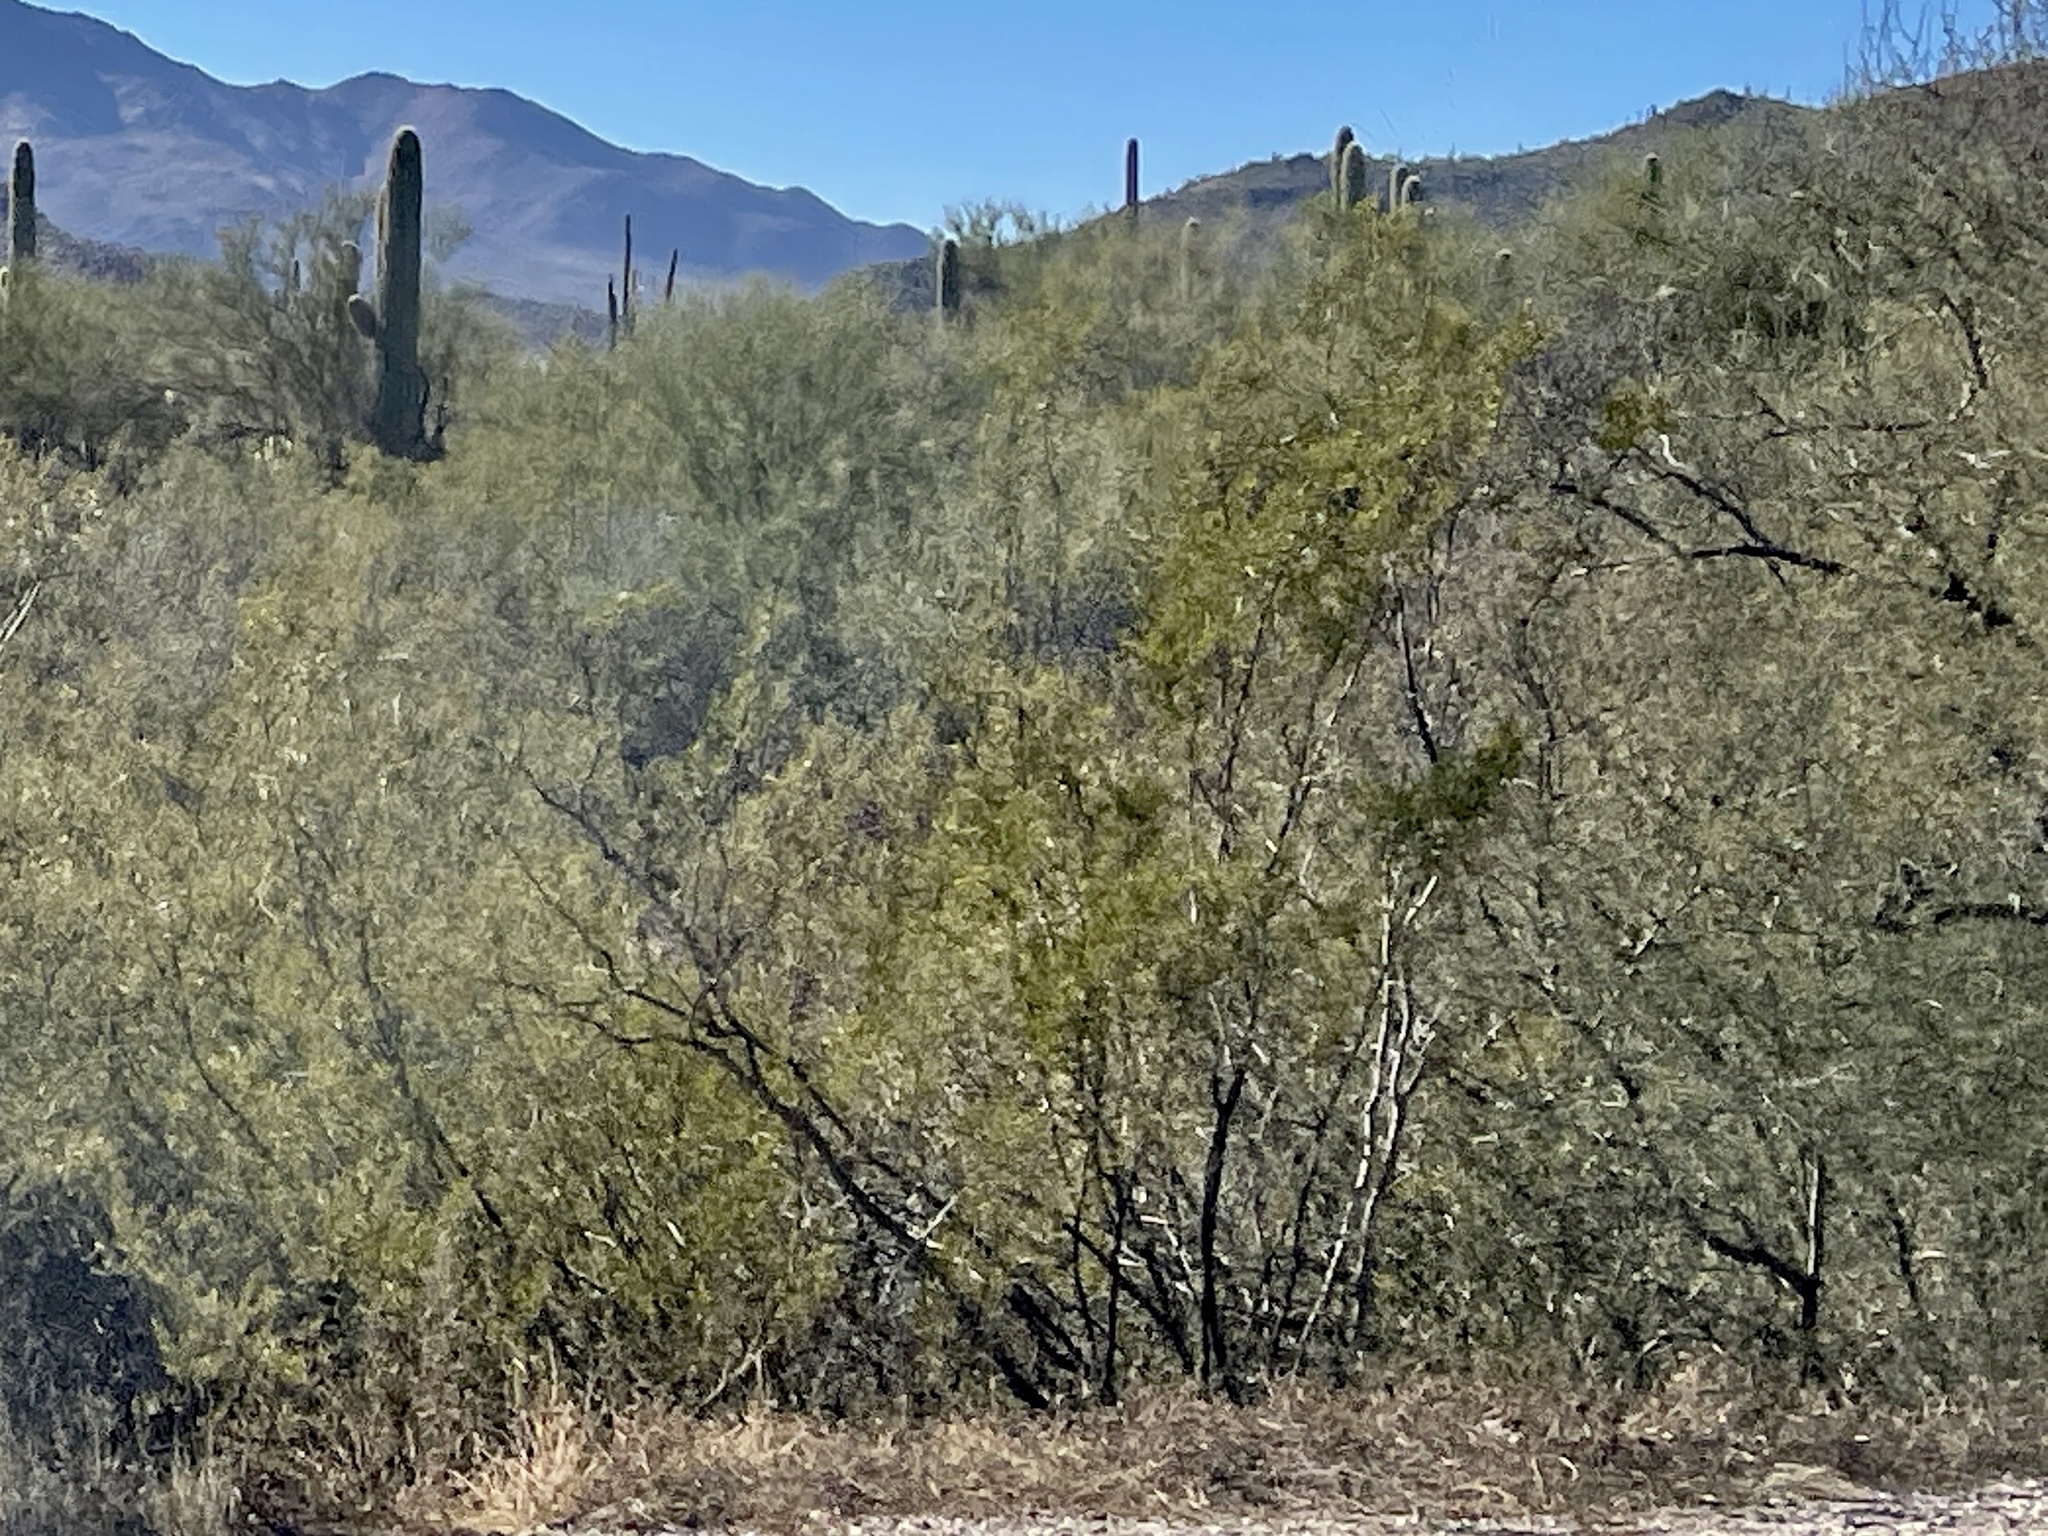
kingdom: Plantae
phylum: Tracheophyta
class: Magnoliopsida
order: Zygophyllales
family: Zygophyllaceae
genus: Larrea
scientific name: Larrea tridentata
